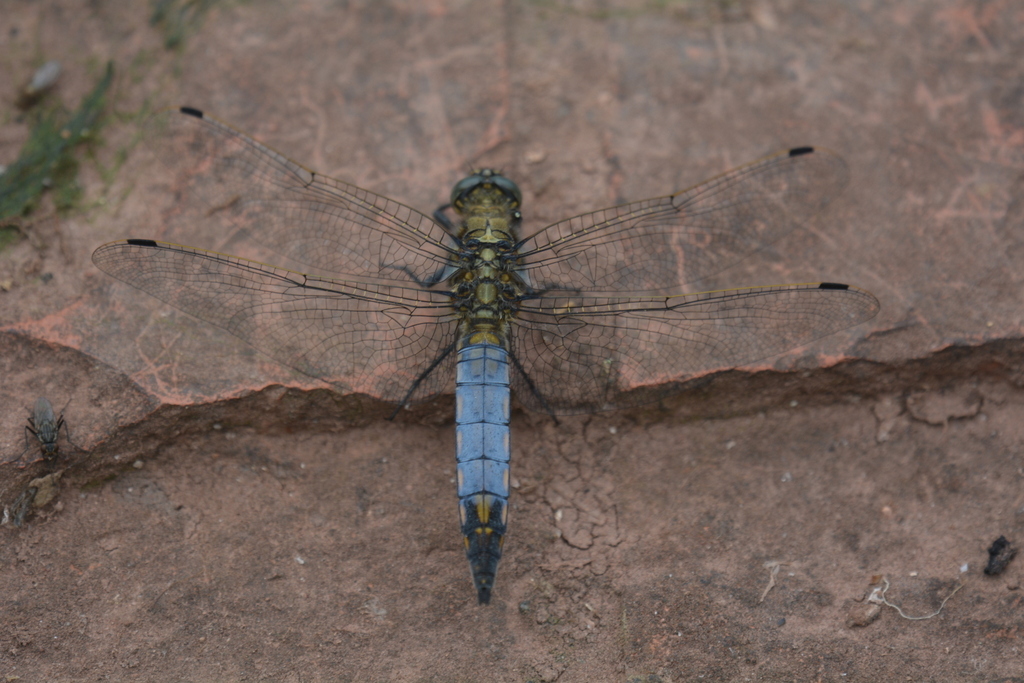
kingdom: Animalia
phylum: Arthropoda
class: Insecta
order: Odonata
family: Libellulidae
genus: Orthetrum
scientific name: Orthetrum cancellatum
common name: Black-tailed skimmer
